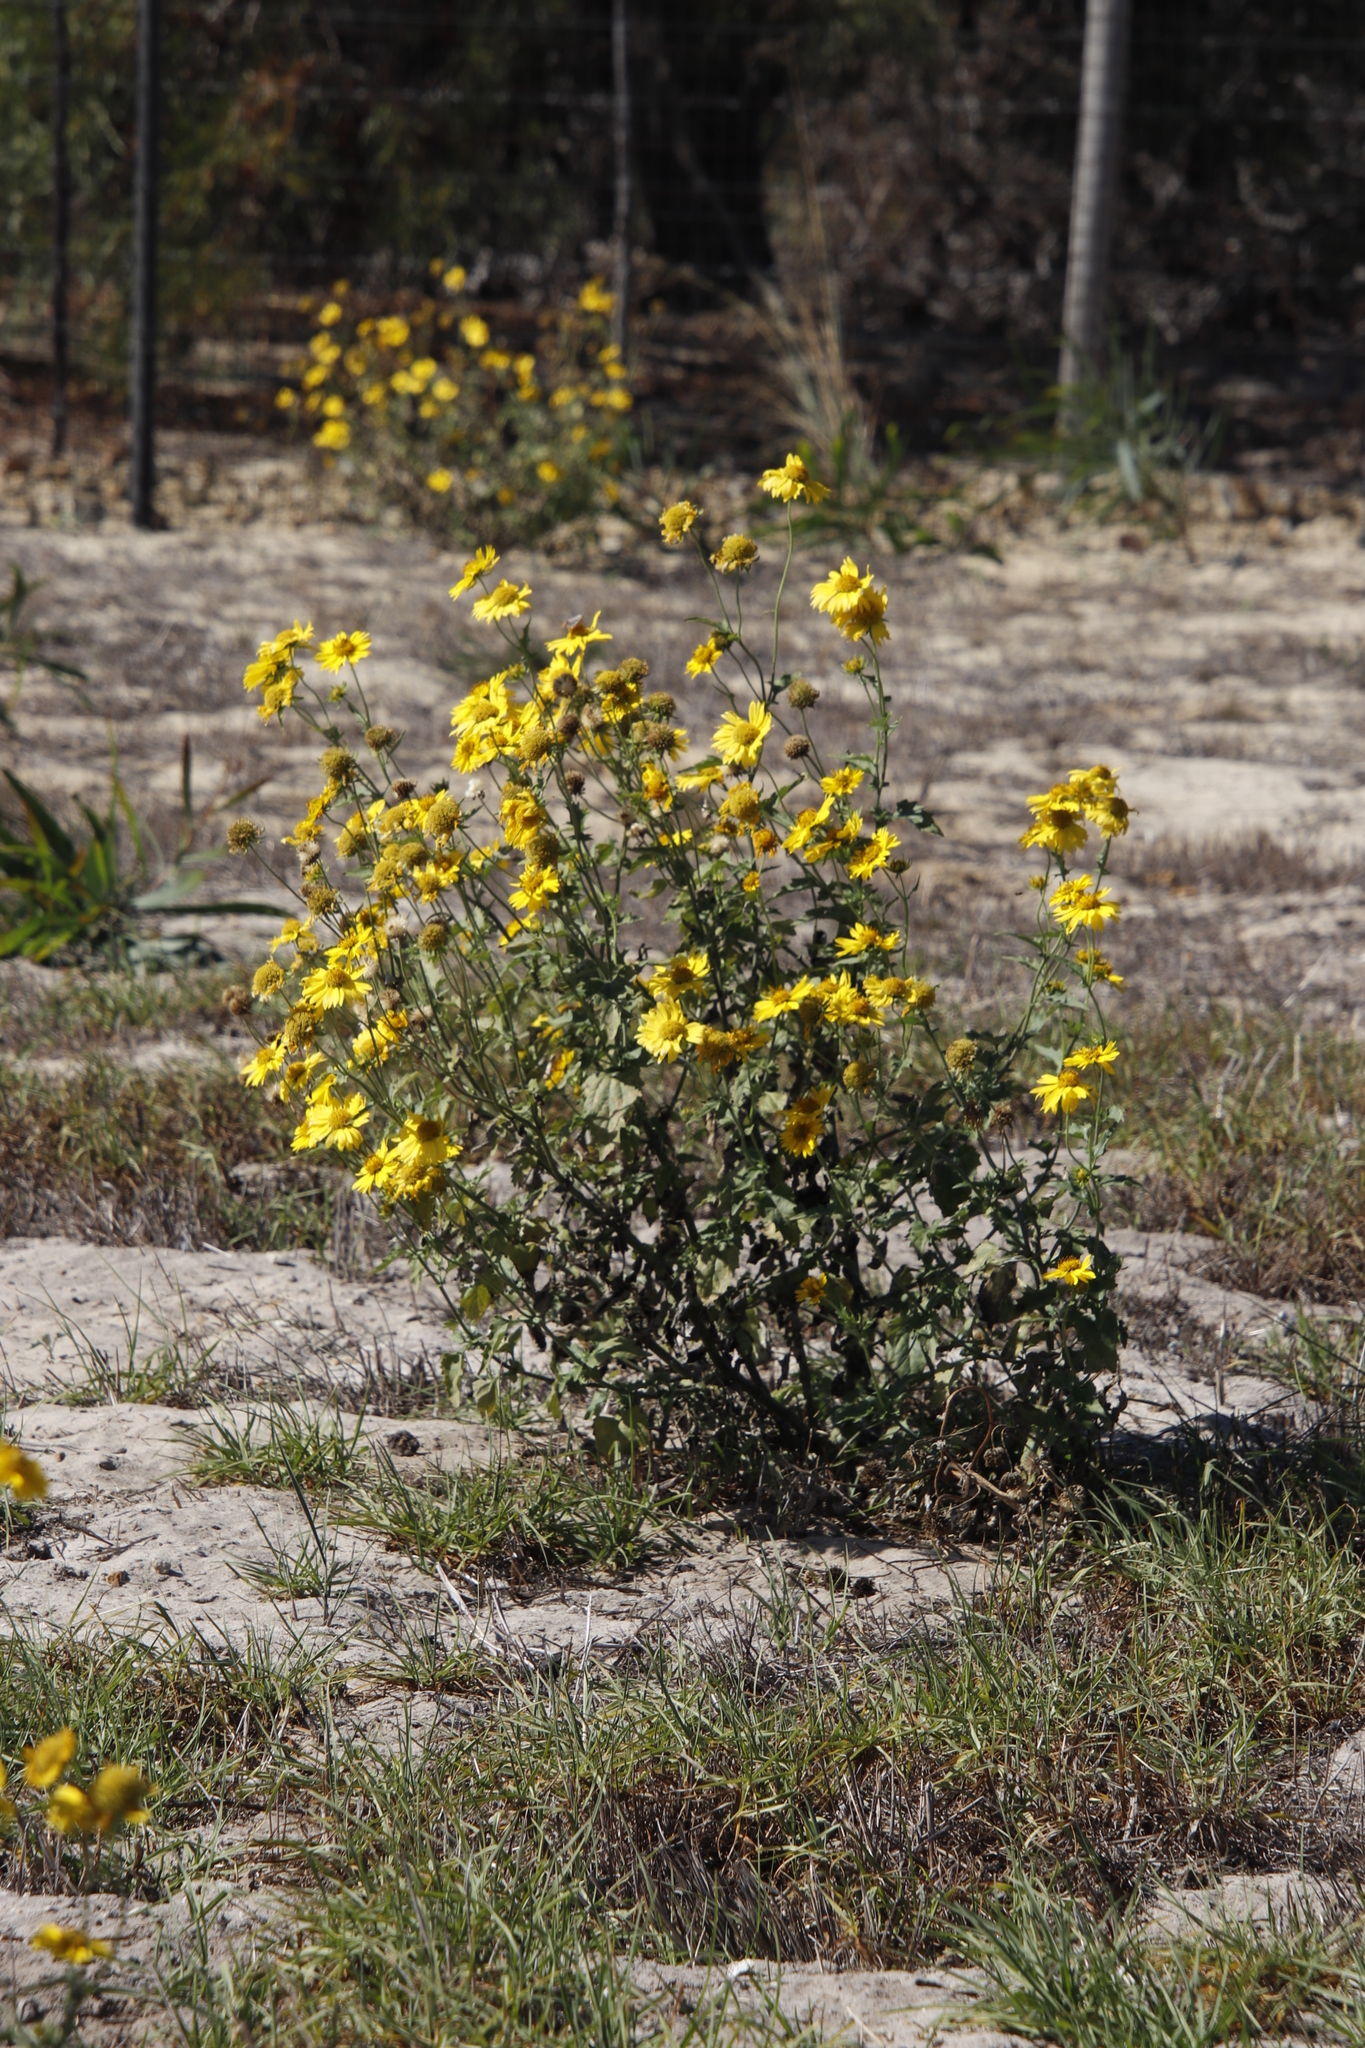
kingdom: Plantae
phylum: Tracheophyta
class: Magnoliopsida
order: Asterales
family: Asteraceae
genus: Verbesina
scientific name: Verbesina encelioides
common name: Golden crownbeard
